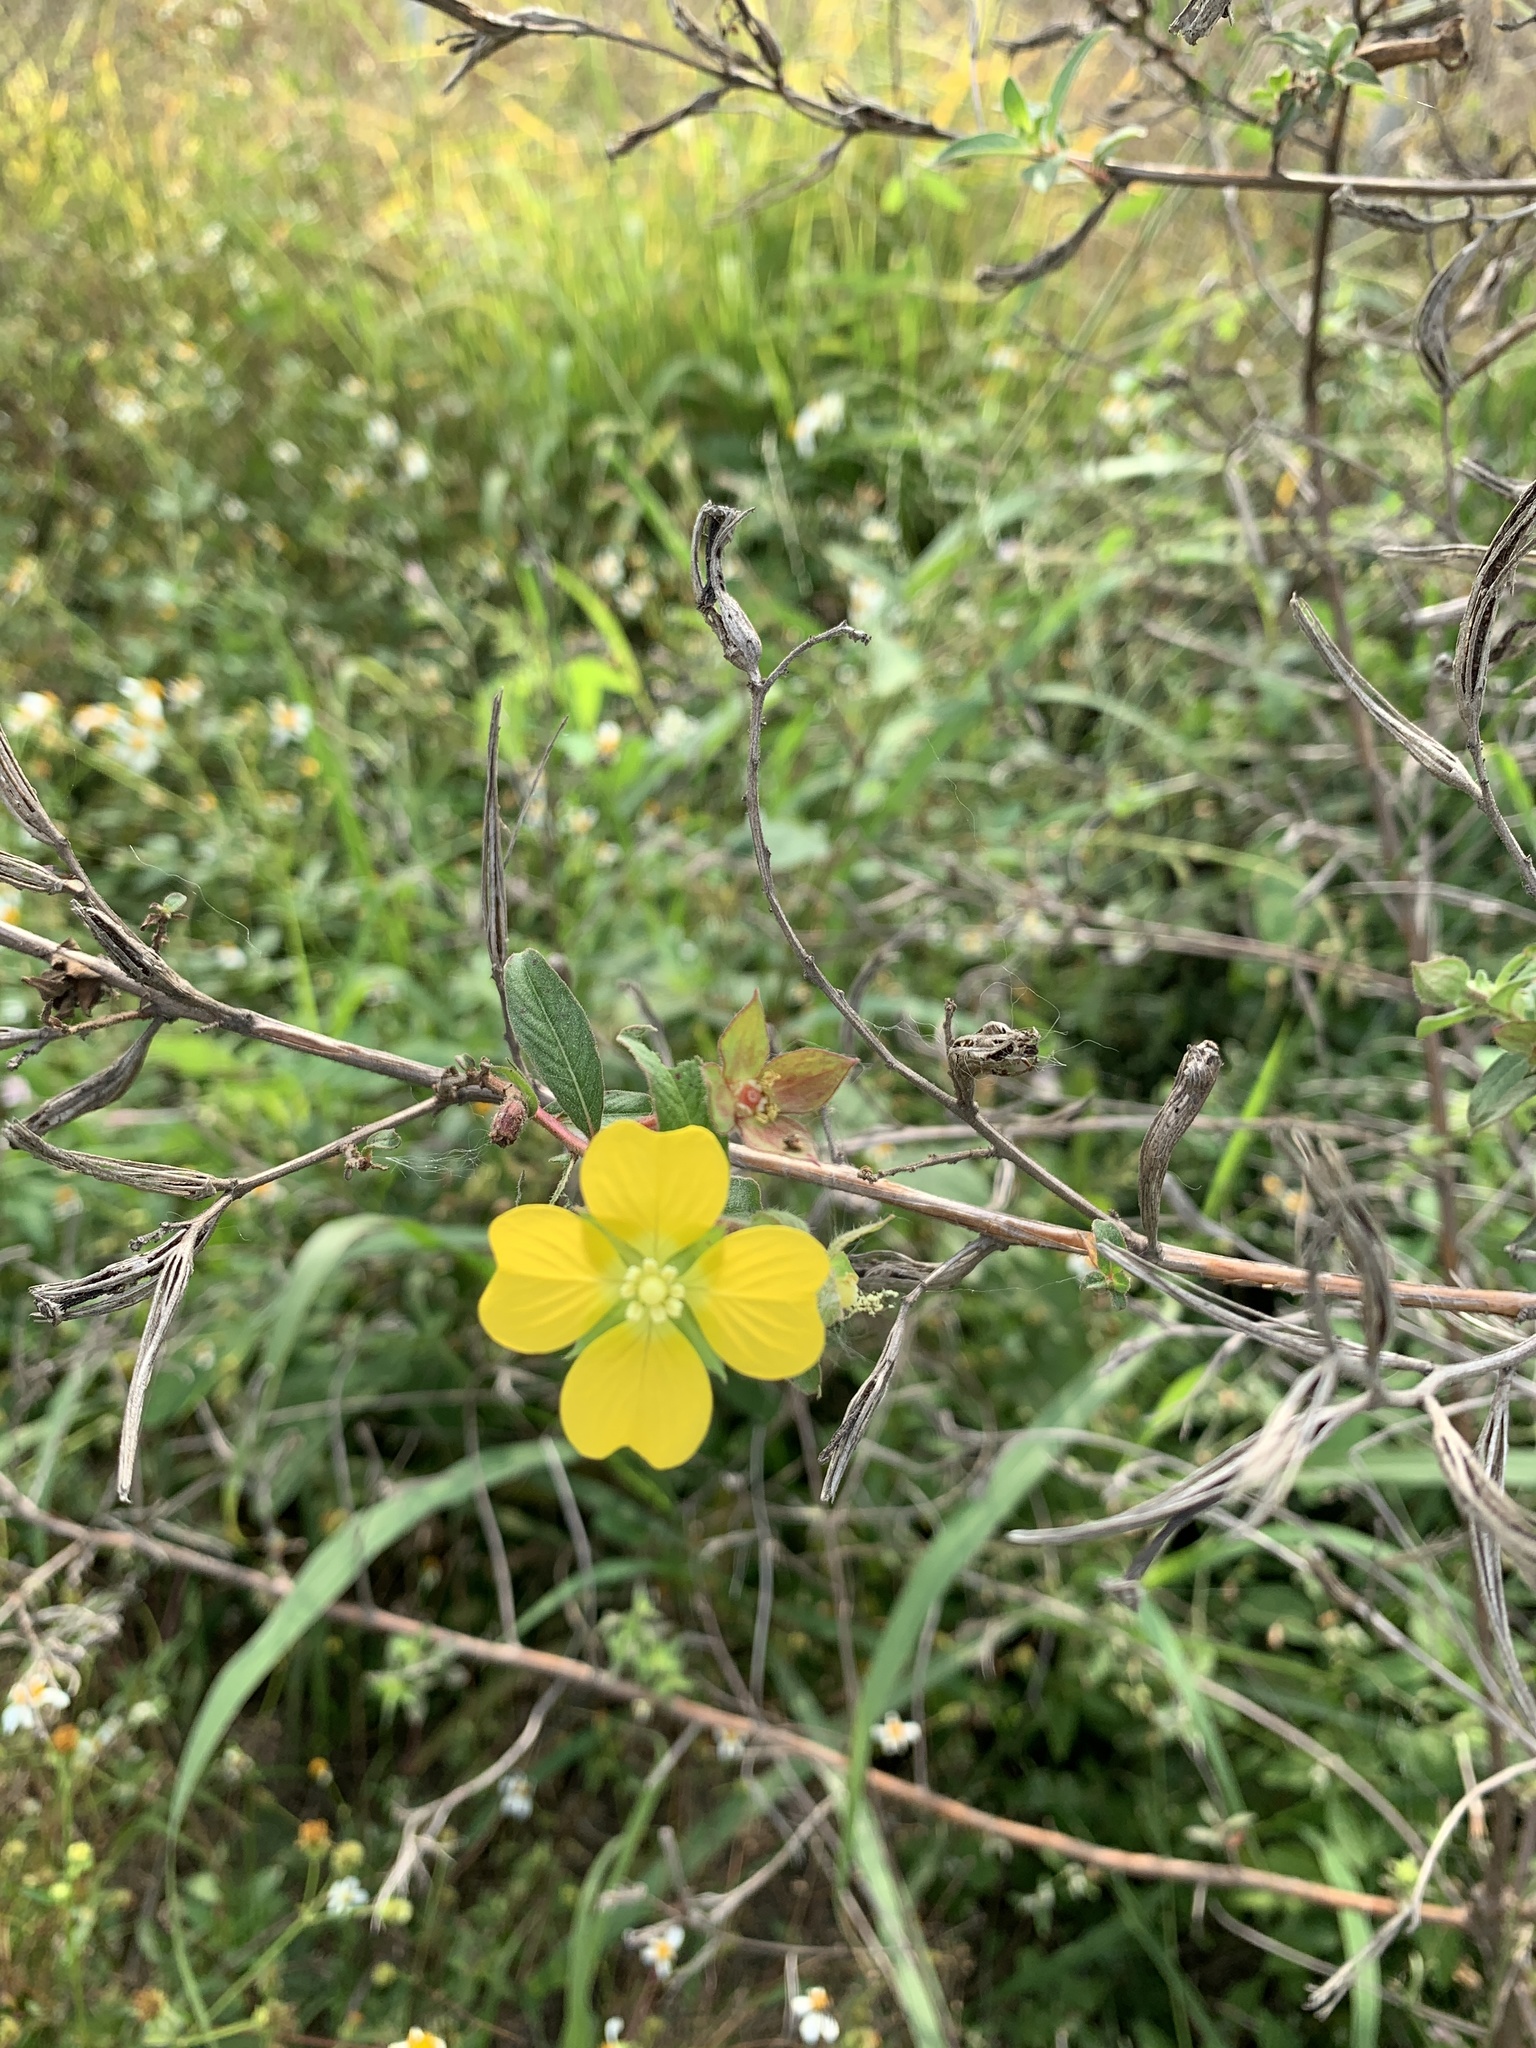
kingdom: Plantae
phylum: Tracheophyta
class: Magnoliopsida
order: Myrtales
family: Onagraceae
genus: Ludwigia
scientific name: Ludwigia octovalvis
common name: Water-primrose
